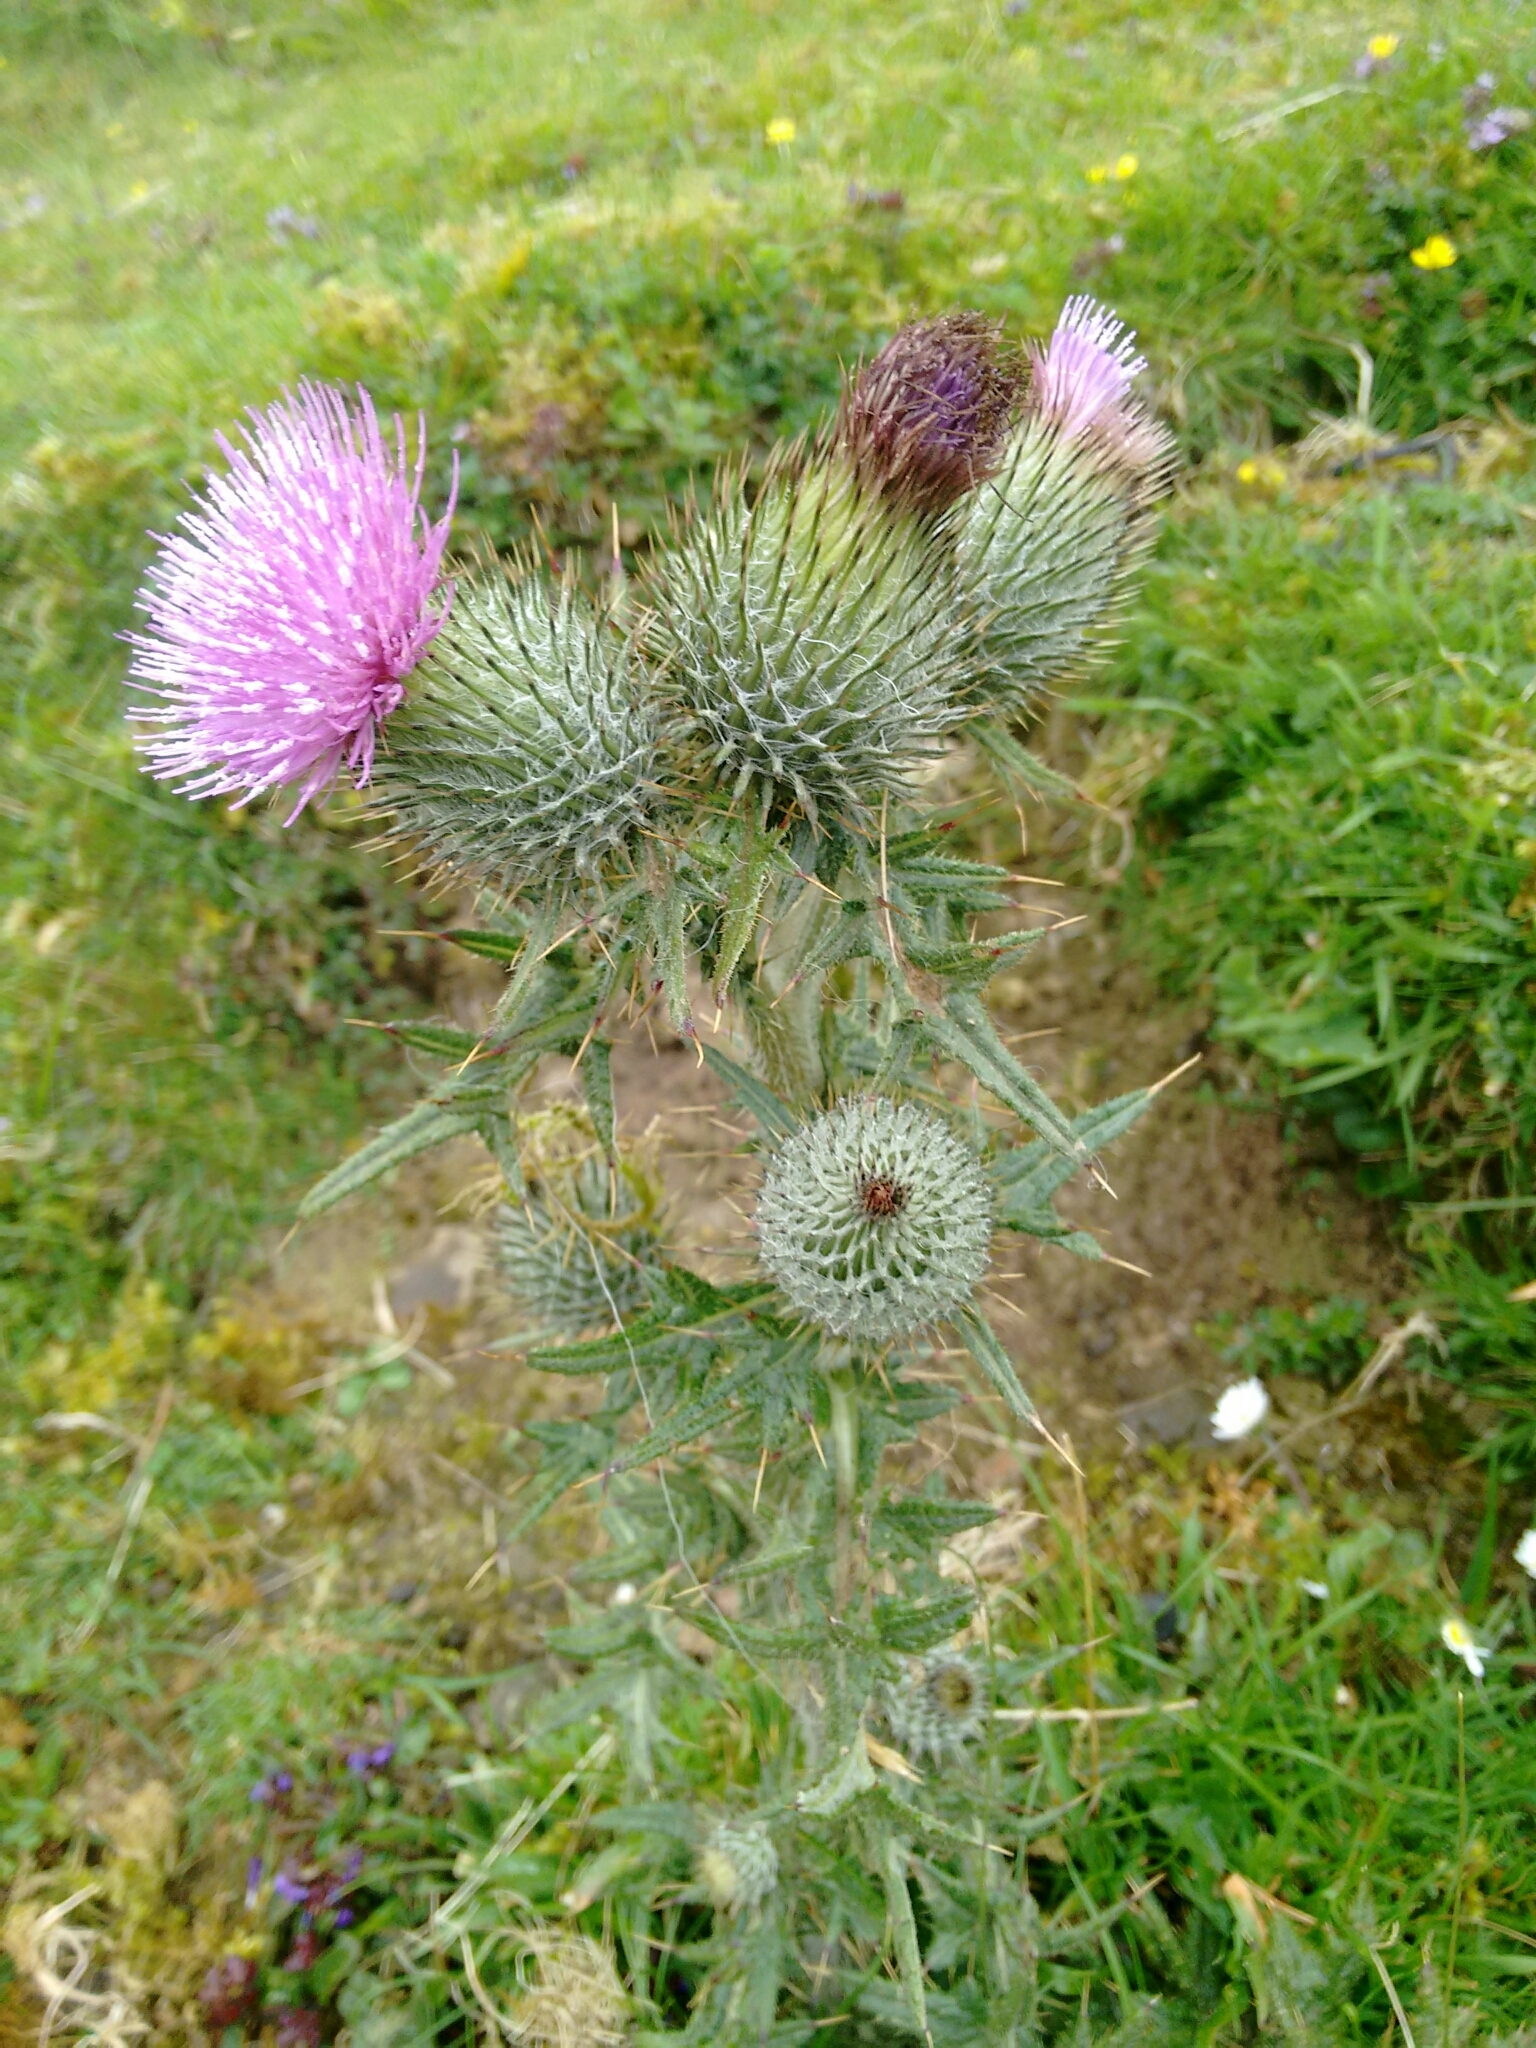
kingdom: Plantae
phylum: Tracheophyta
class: Magnoliopsida
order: Asterales
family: Asteraceae
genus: Cirsium
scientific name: Cirsium vulgare
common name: Bull thistle
